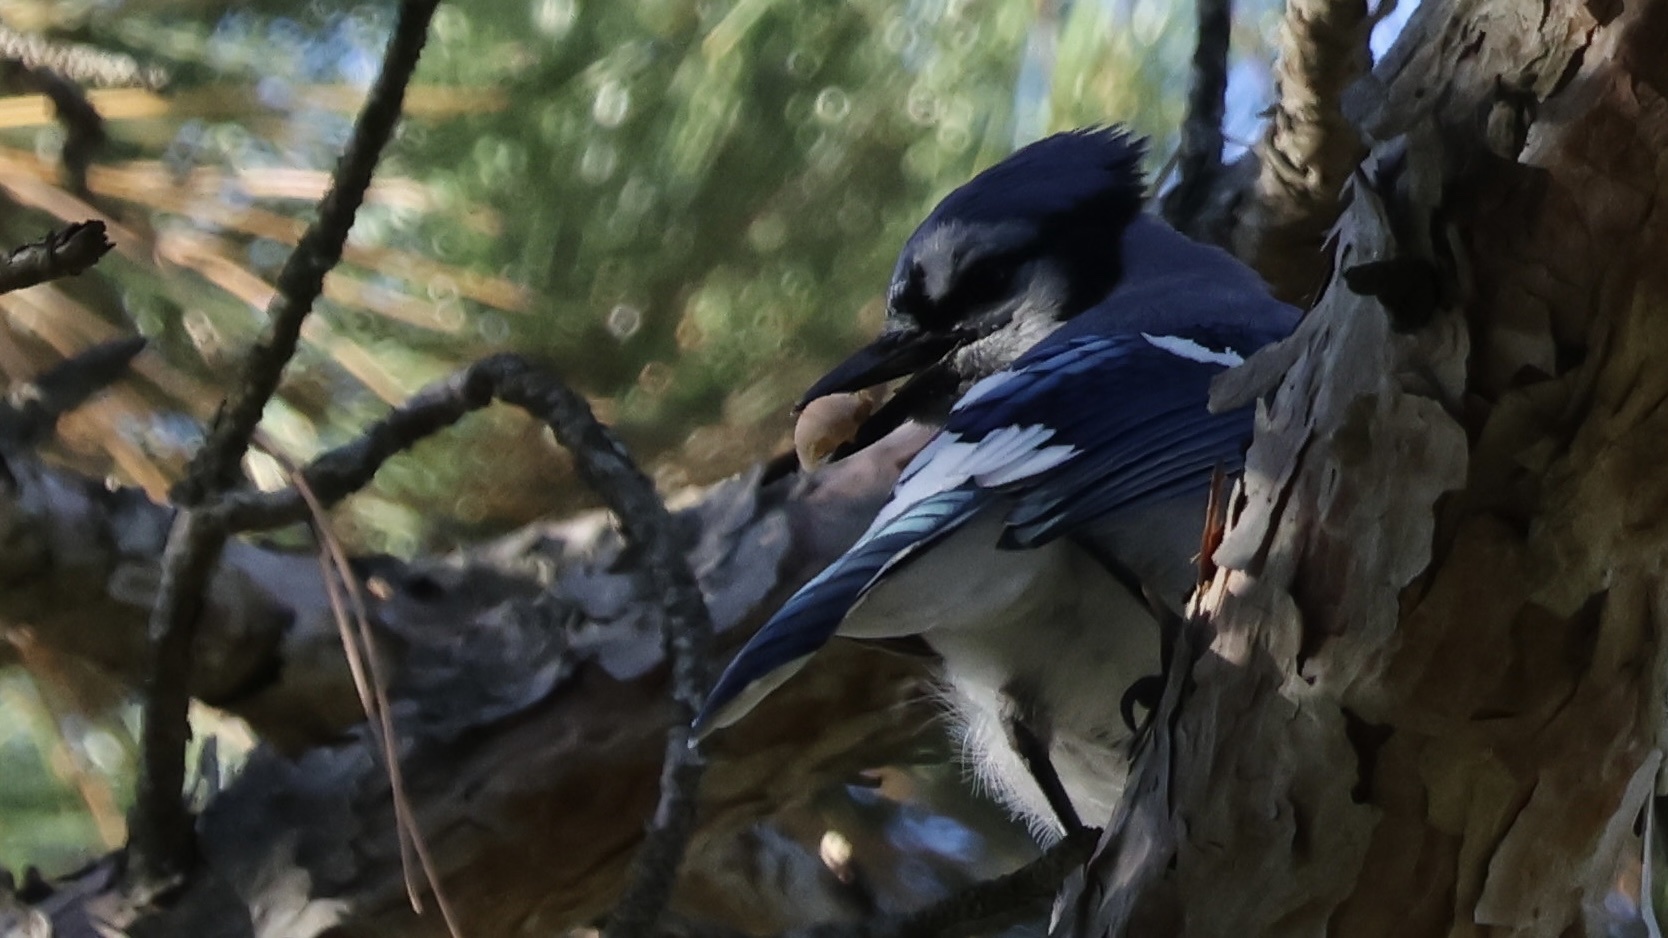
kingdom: Animalia
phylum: Chordata
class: Aves
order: Passeriformes
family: Corvidae
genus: Cyanocitta
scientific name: Cyanocitta cristata
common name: Blue jay
